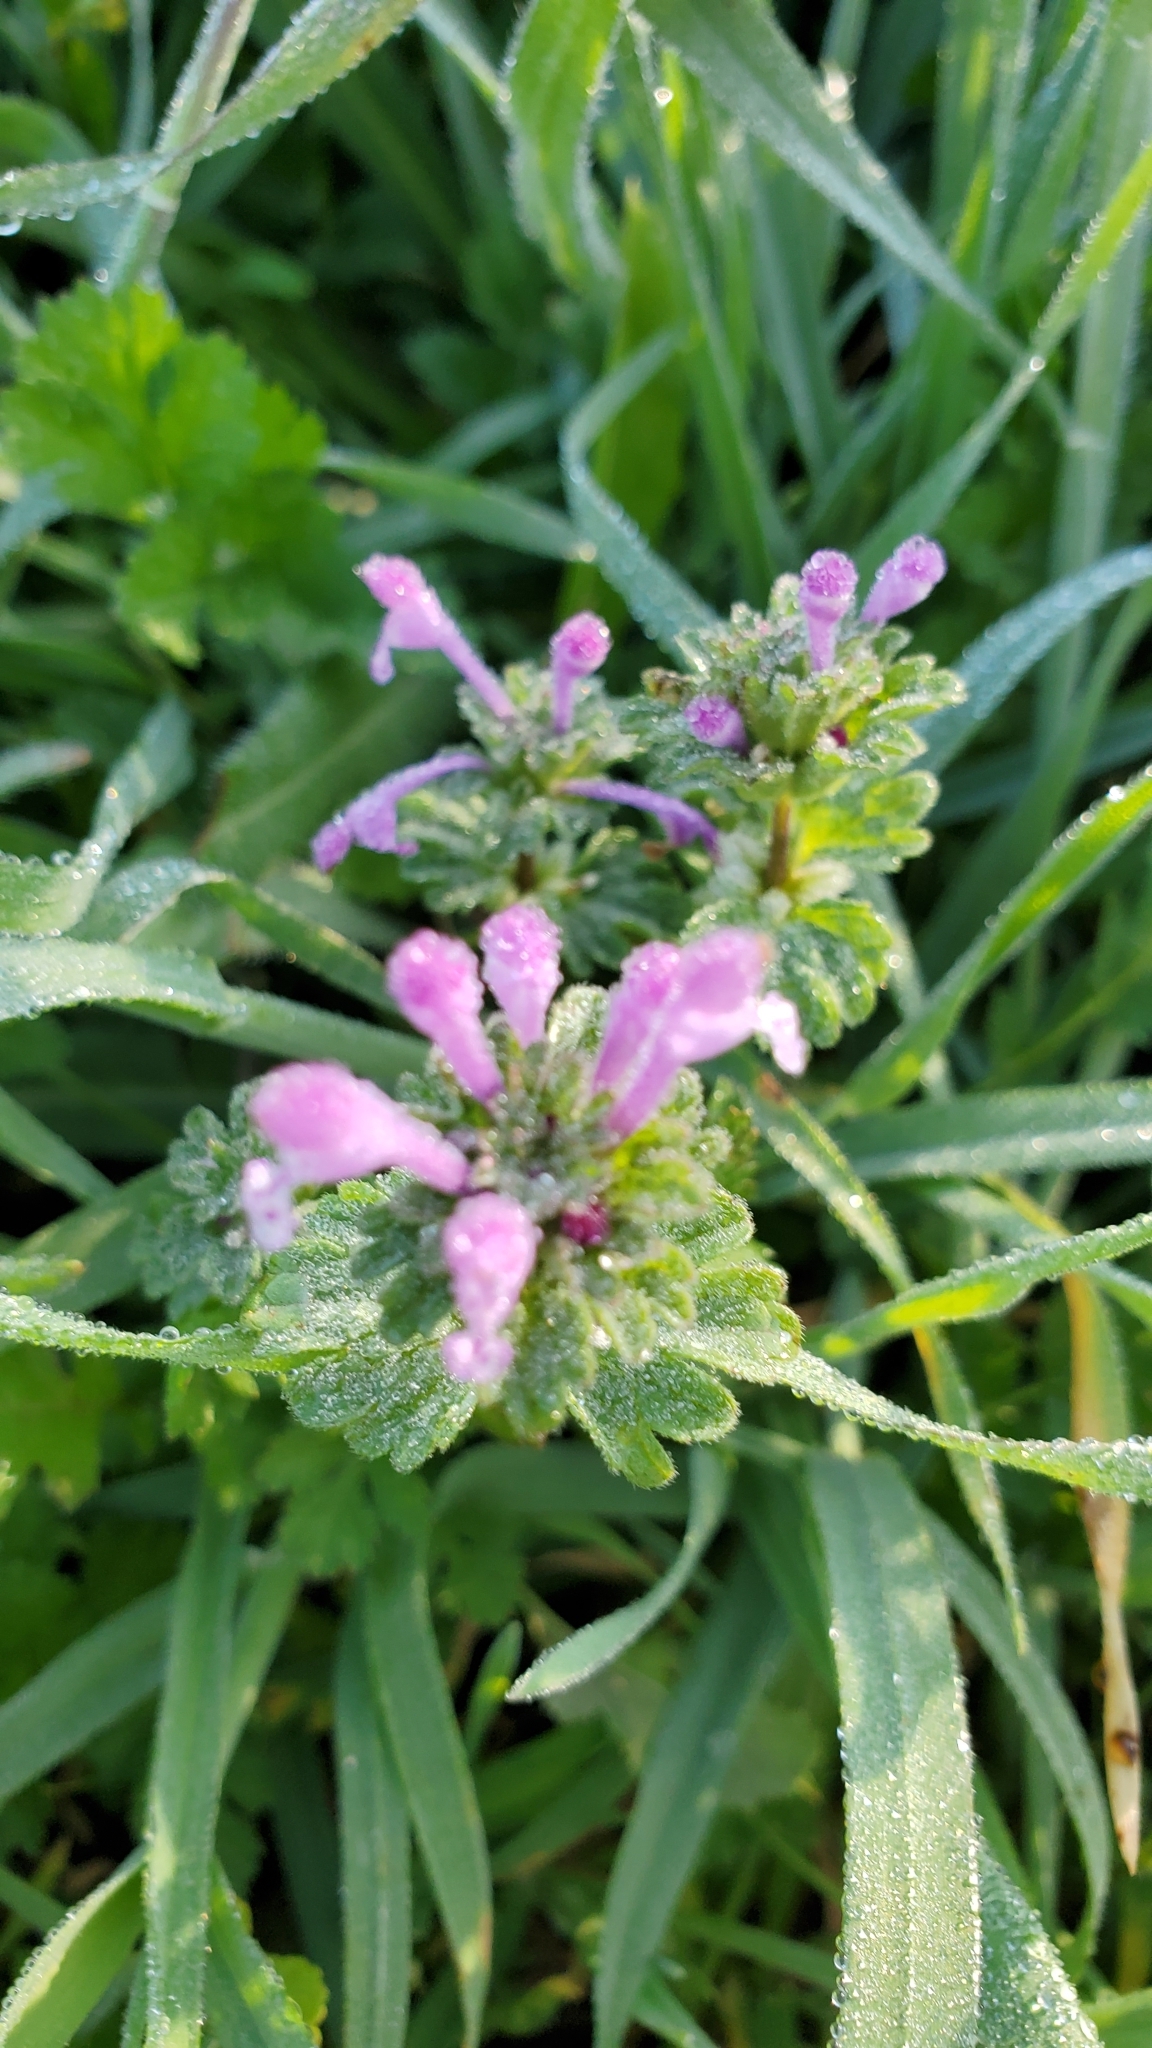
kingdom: Plantae
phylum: Tracheophyta
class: Magnoliopsida
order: Lamiales
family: Lamiaceae
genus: Lamium
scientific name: Lamium amplexicaule
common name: Henbit dead-nettle
